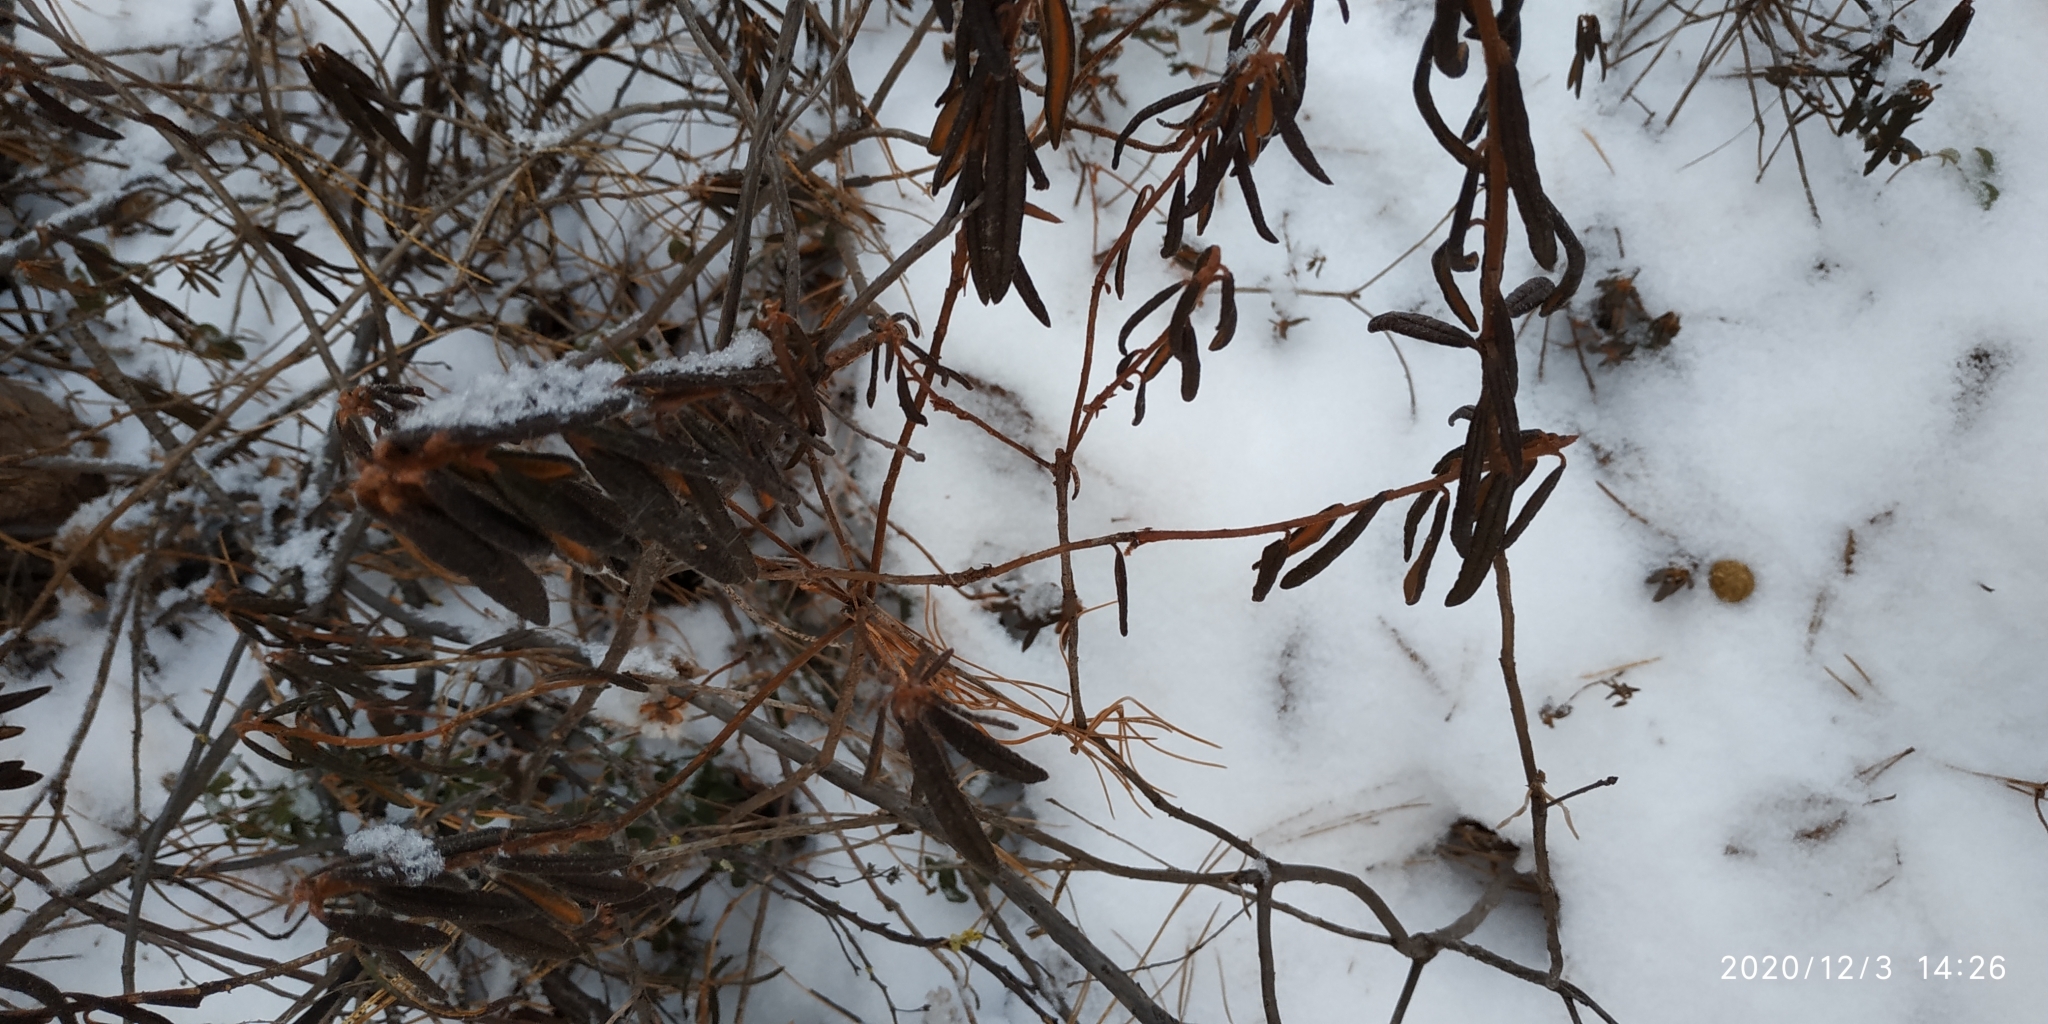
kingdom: Plantae
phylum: Tracheophyta
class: Magnoliopsida
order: Ericales
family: Ericaceae
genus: Rhododendron
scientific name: Rhododendron tomentosum
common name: Marsh labrador tea
